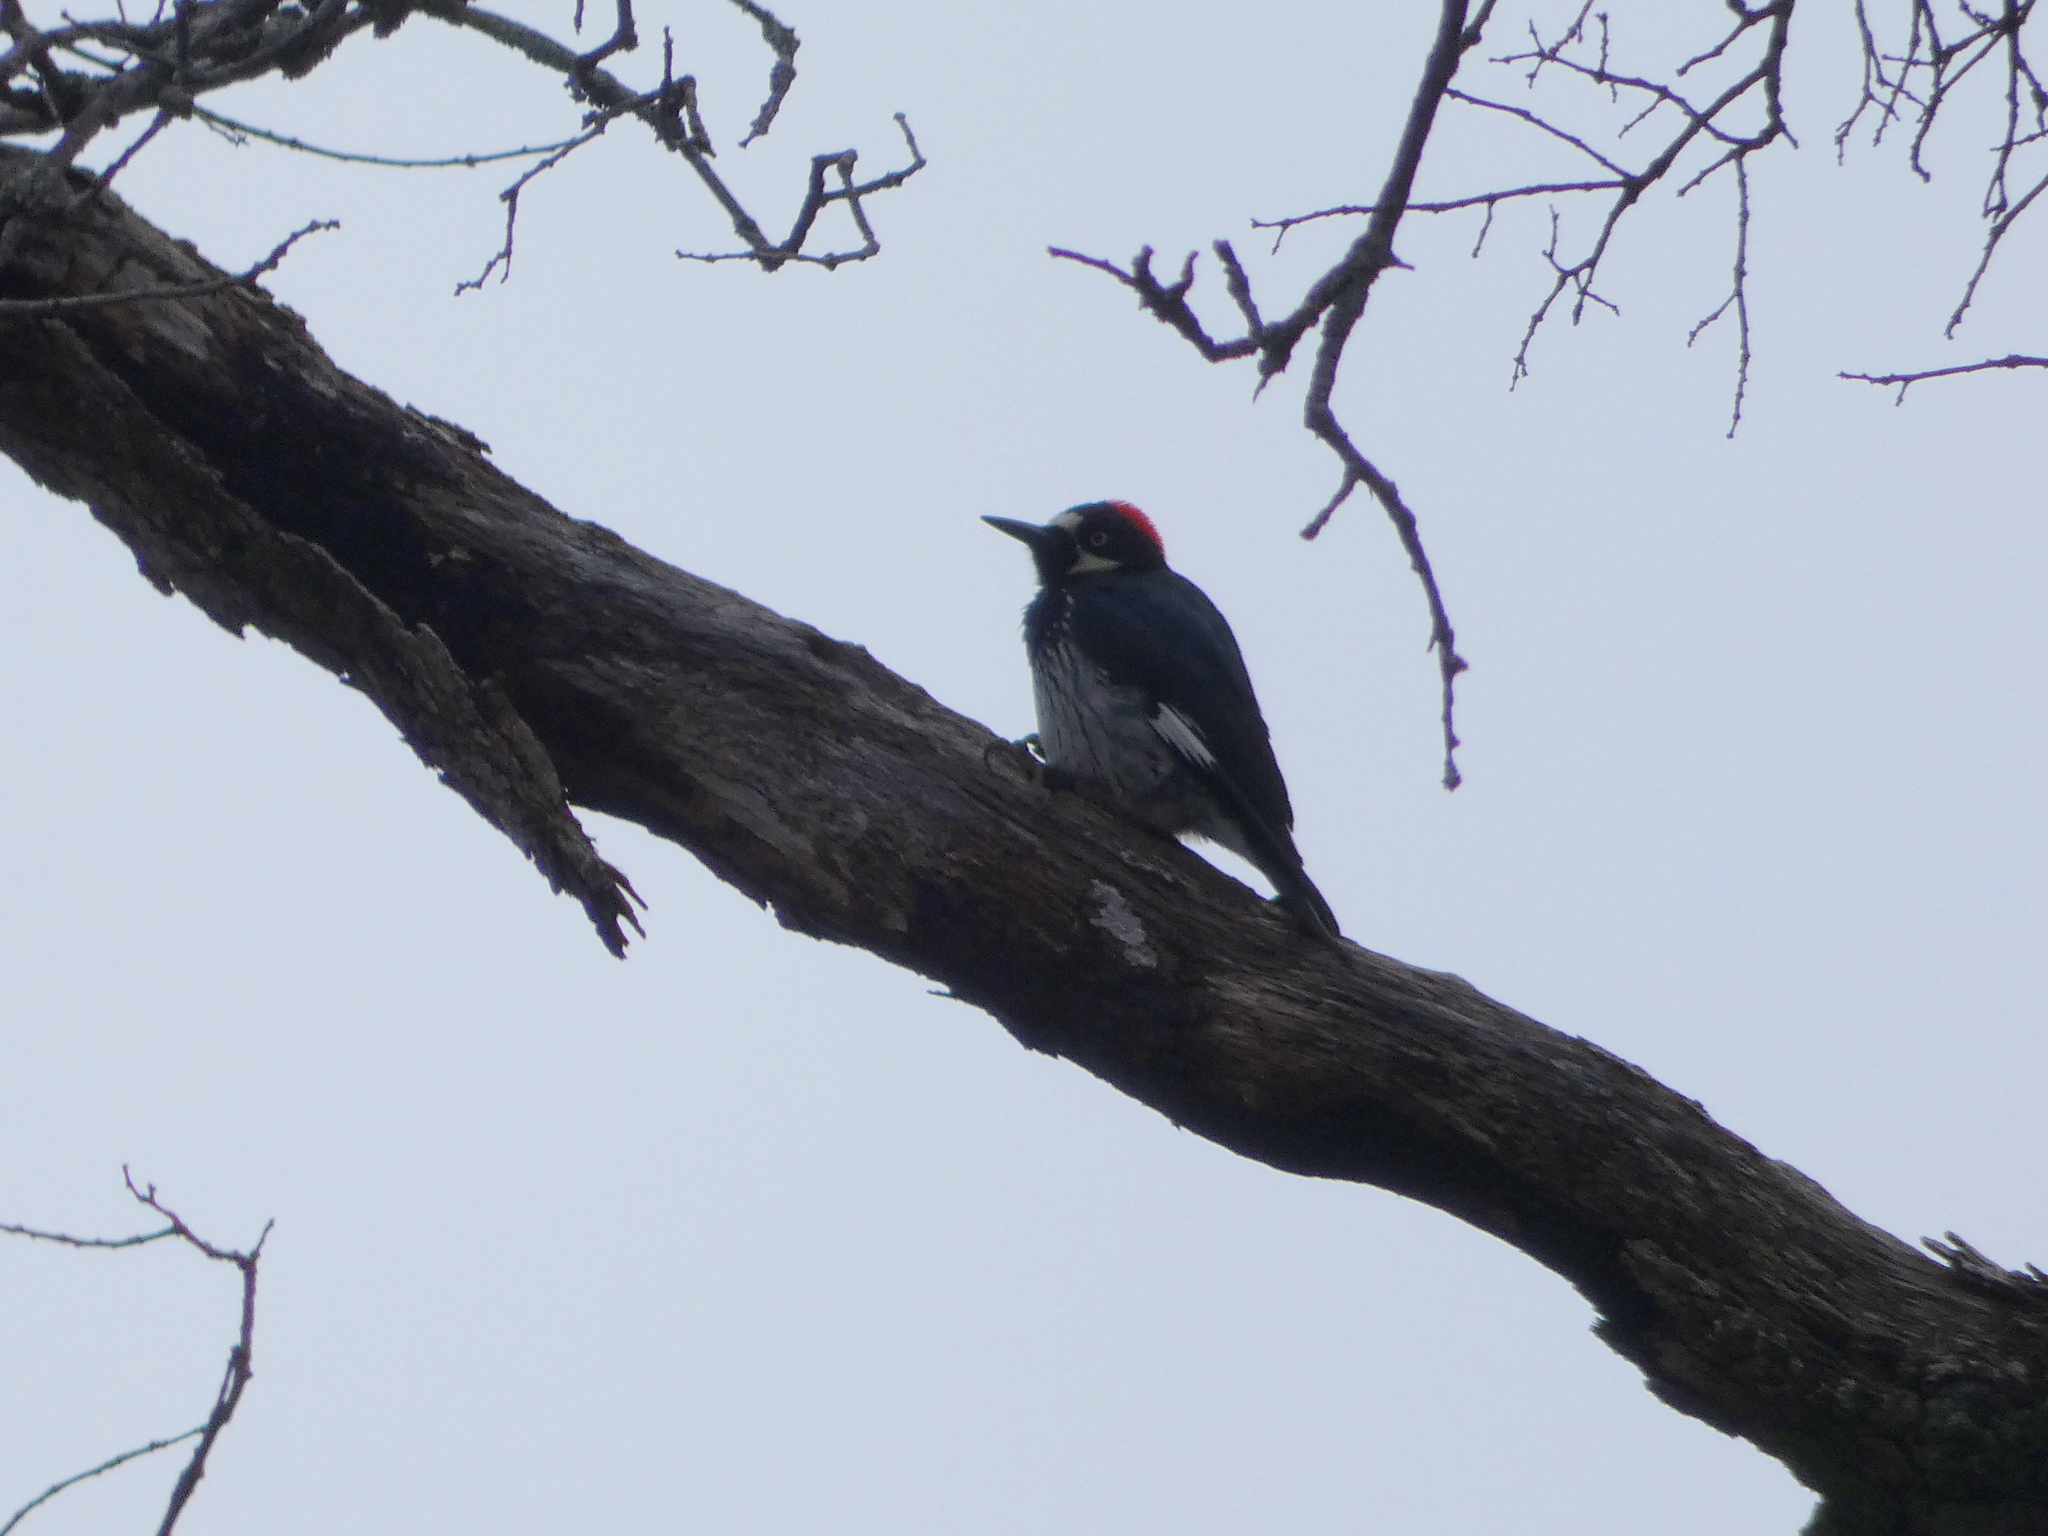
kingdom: Animalia
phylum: Chordata
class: Aves
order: Piciformes
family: Picidae
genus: Melanerpes
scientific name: Melanerpes formicivorus
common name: Acorn woodpecker
